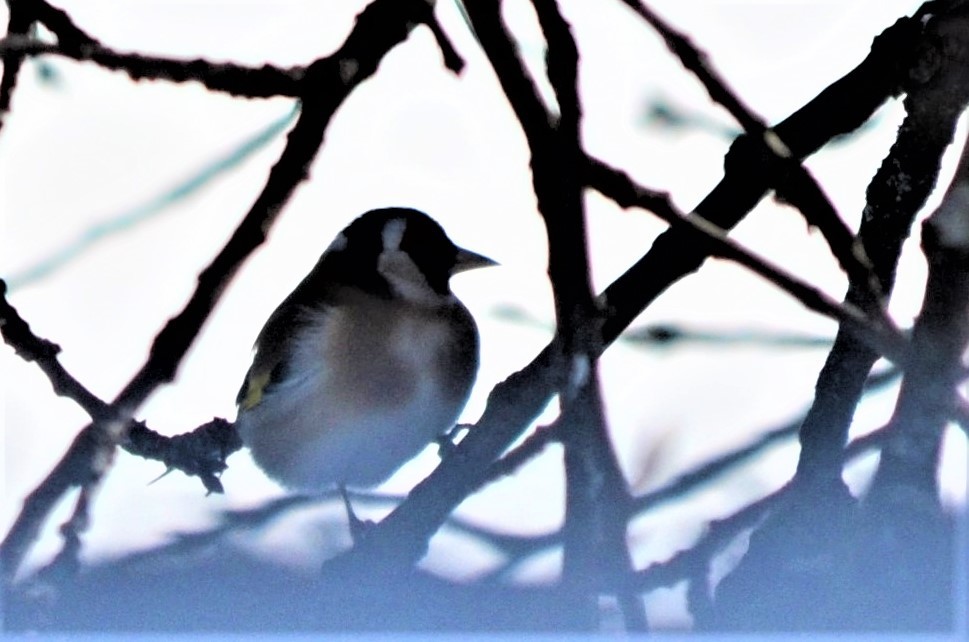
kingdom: Animalia
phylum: Chordata
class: Aves
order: Passeriformes
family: Fringillidae
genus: Carduelis
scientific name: Carduelis carduelis
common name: European goldfinch
